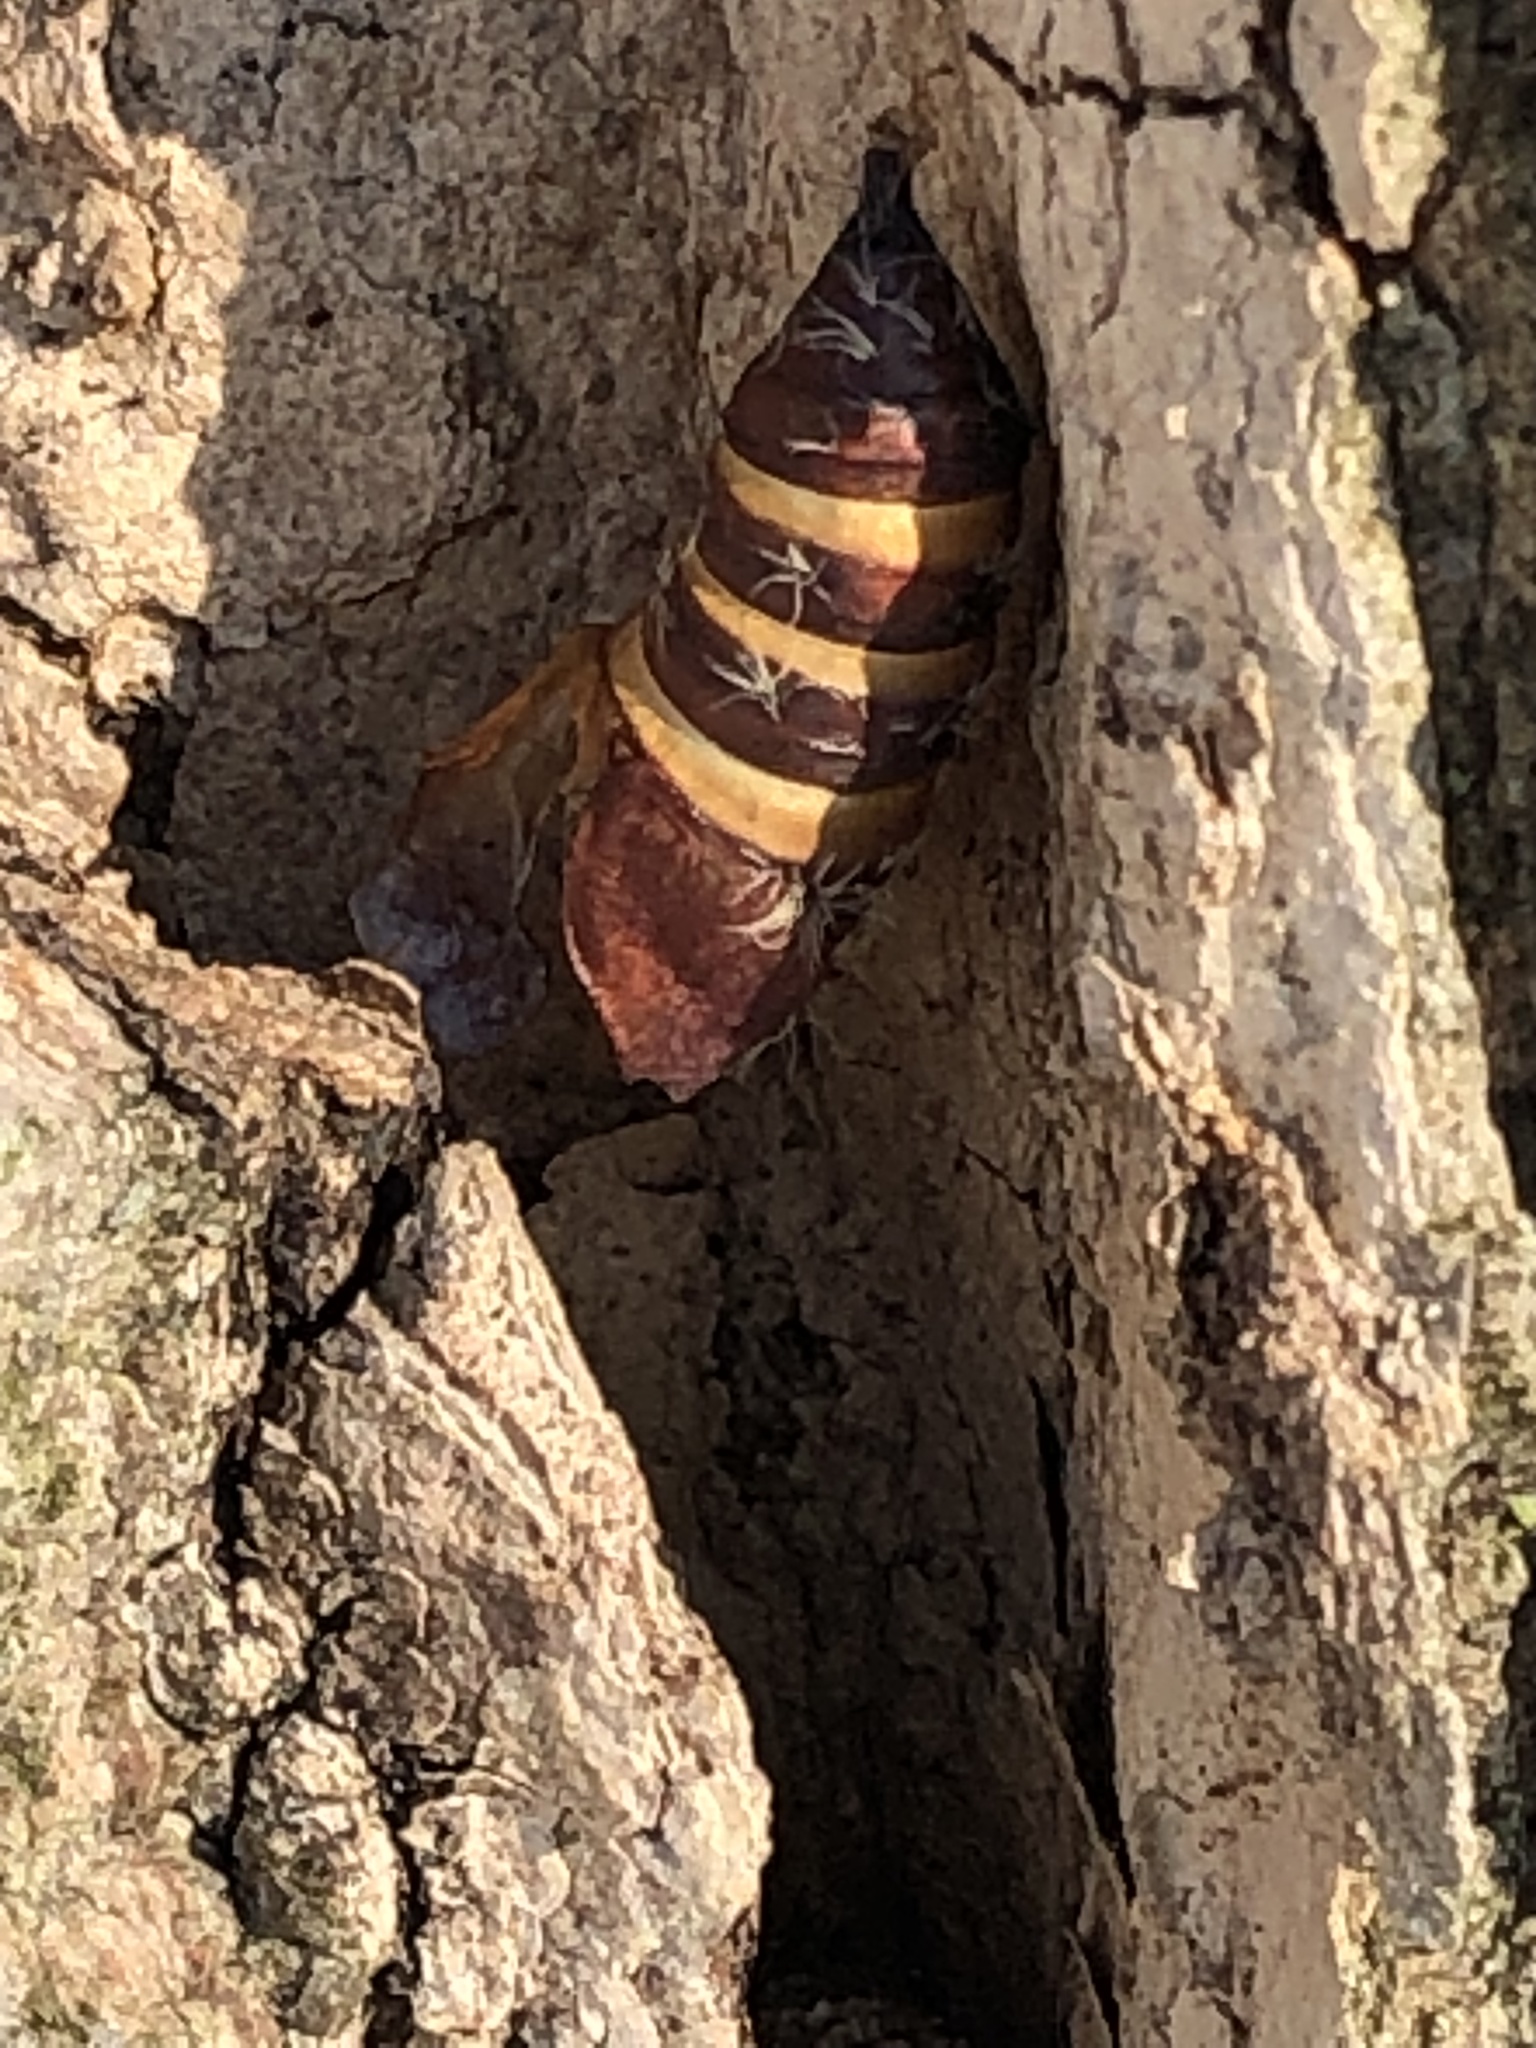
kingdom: Animalia
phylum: Arthropoda
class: Insecta
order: Lepidoptera
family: Erebidae
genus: Lymantria
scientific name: Lymantria dispar
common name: Gypsy moth
